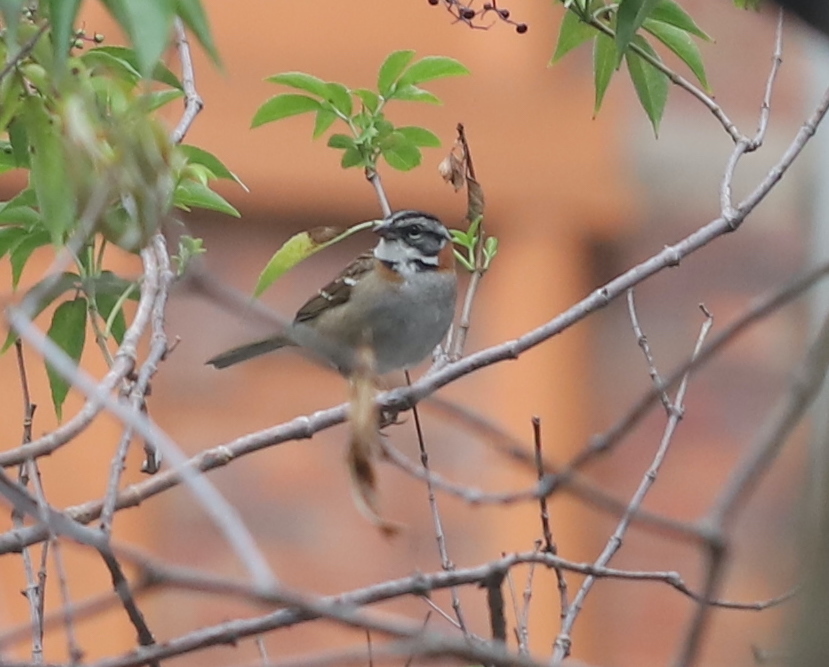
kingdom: Animalia
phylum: Chordata
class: Aves
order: Passeriformes
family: Passerellidae
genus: Zonotrichia
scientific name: Zonotrichia capensis
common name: Rufous-collared sparrow
